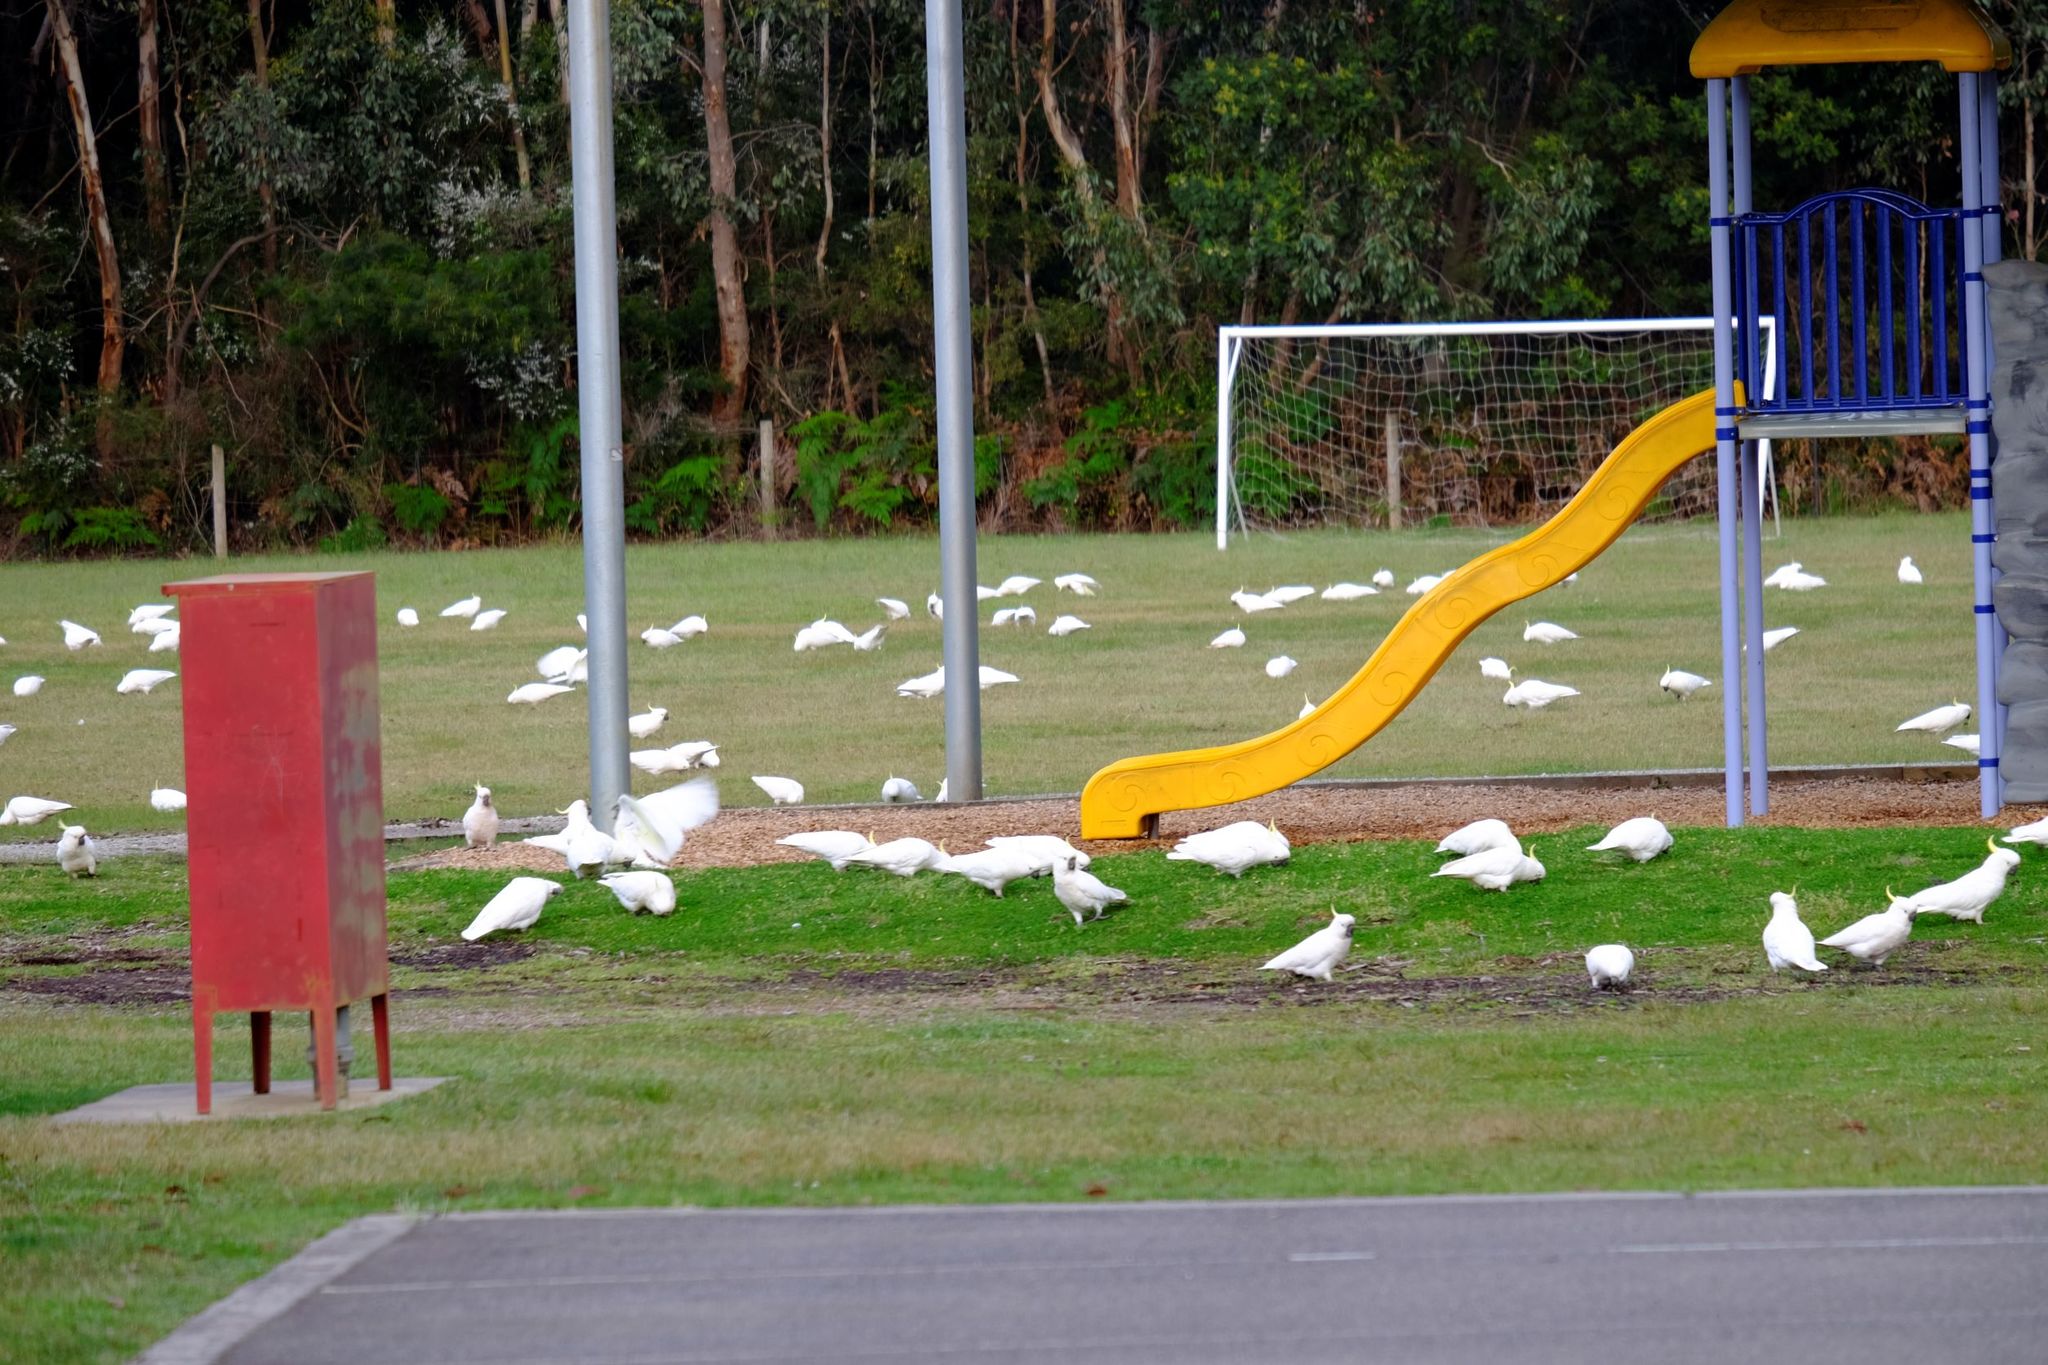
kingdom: Animalia
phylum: Chordata
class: Aves
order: Psittaciformes
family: Psittacidae
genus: Cacatua
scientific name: Cacatua galerita
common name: Sulphur-crested cockatoo
